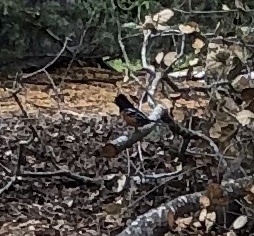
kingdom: Animalia
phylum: Chordata
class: Aves
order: Passeriformes
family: Passerellidae
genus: Pipilo
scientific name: Pipilo maculatus
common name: Spotted towhee
